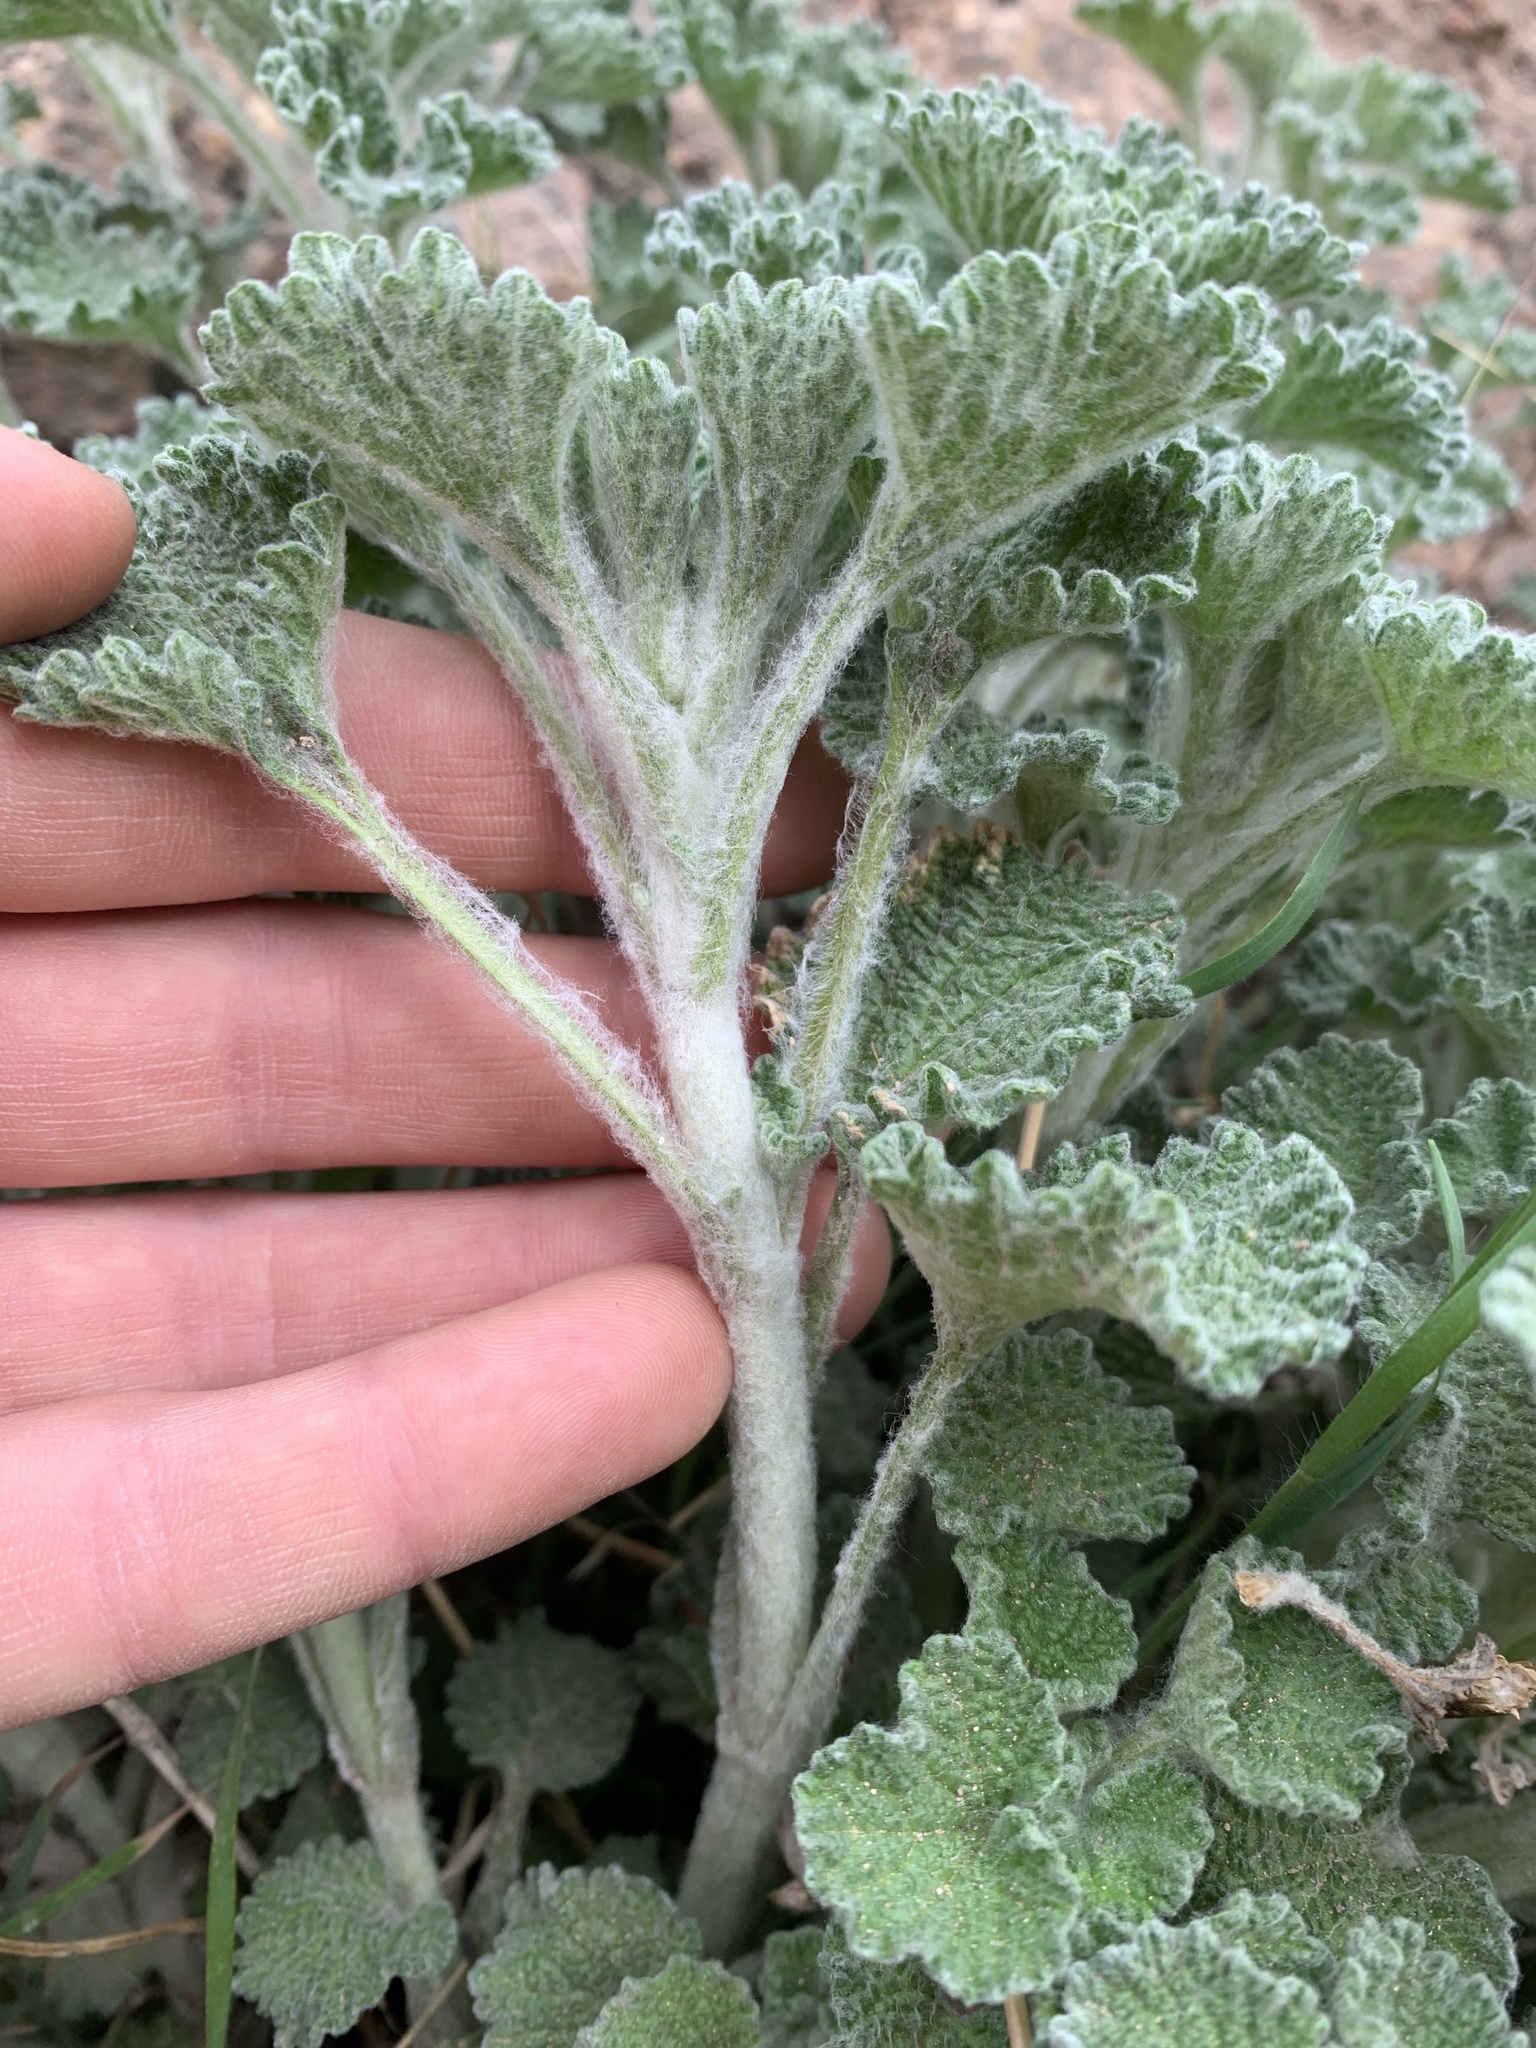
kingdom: Plantae
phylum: Tracheophyta
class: Magnoliopsida
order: Lamiales
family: Lamiaceae
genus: Marrubium
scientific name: Marrubium vulgare
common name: Horehound
